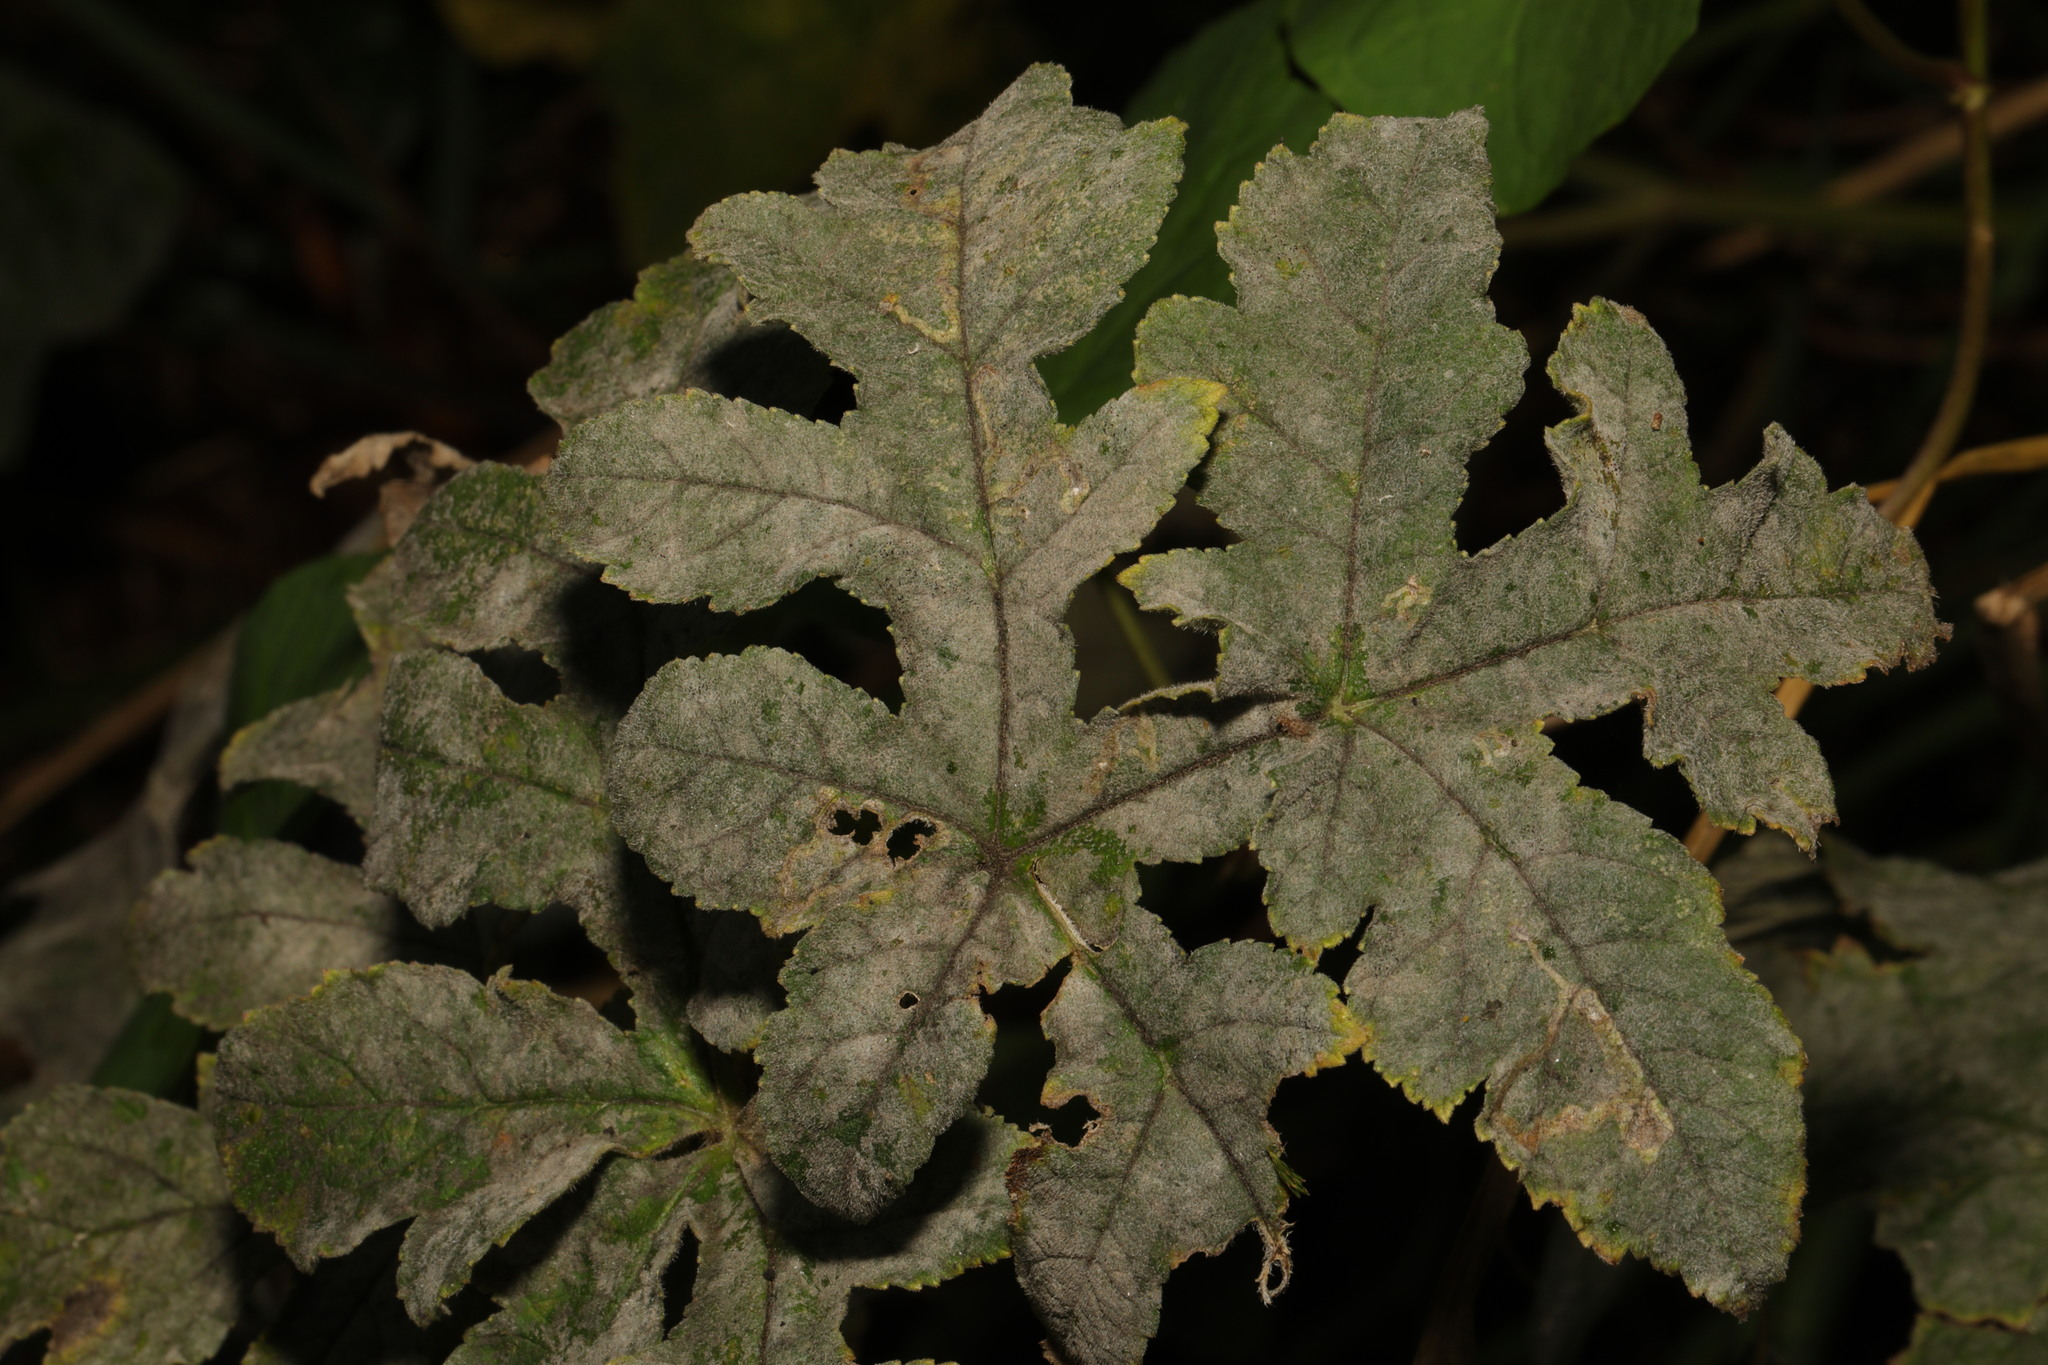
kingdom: Fungi
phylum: Ascomycota
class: Leotiomycetes
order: Helotiales
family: Erysiphaceae
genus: Erysiphe
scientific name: Erysiphe heraclei
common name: Umbellifer mildew
